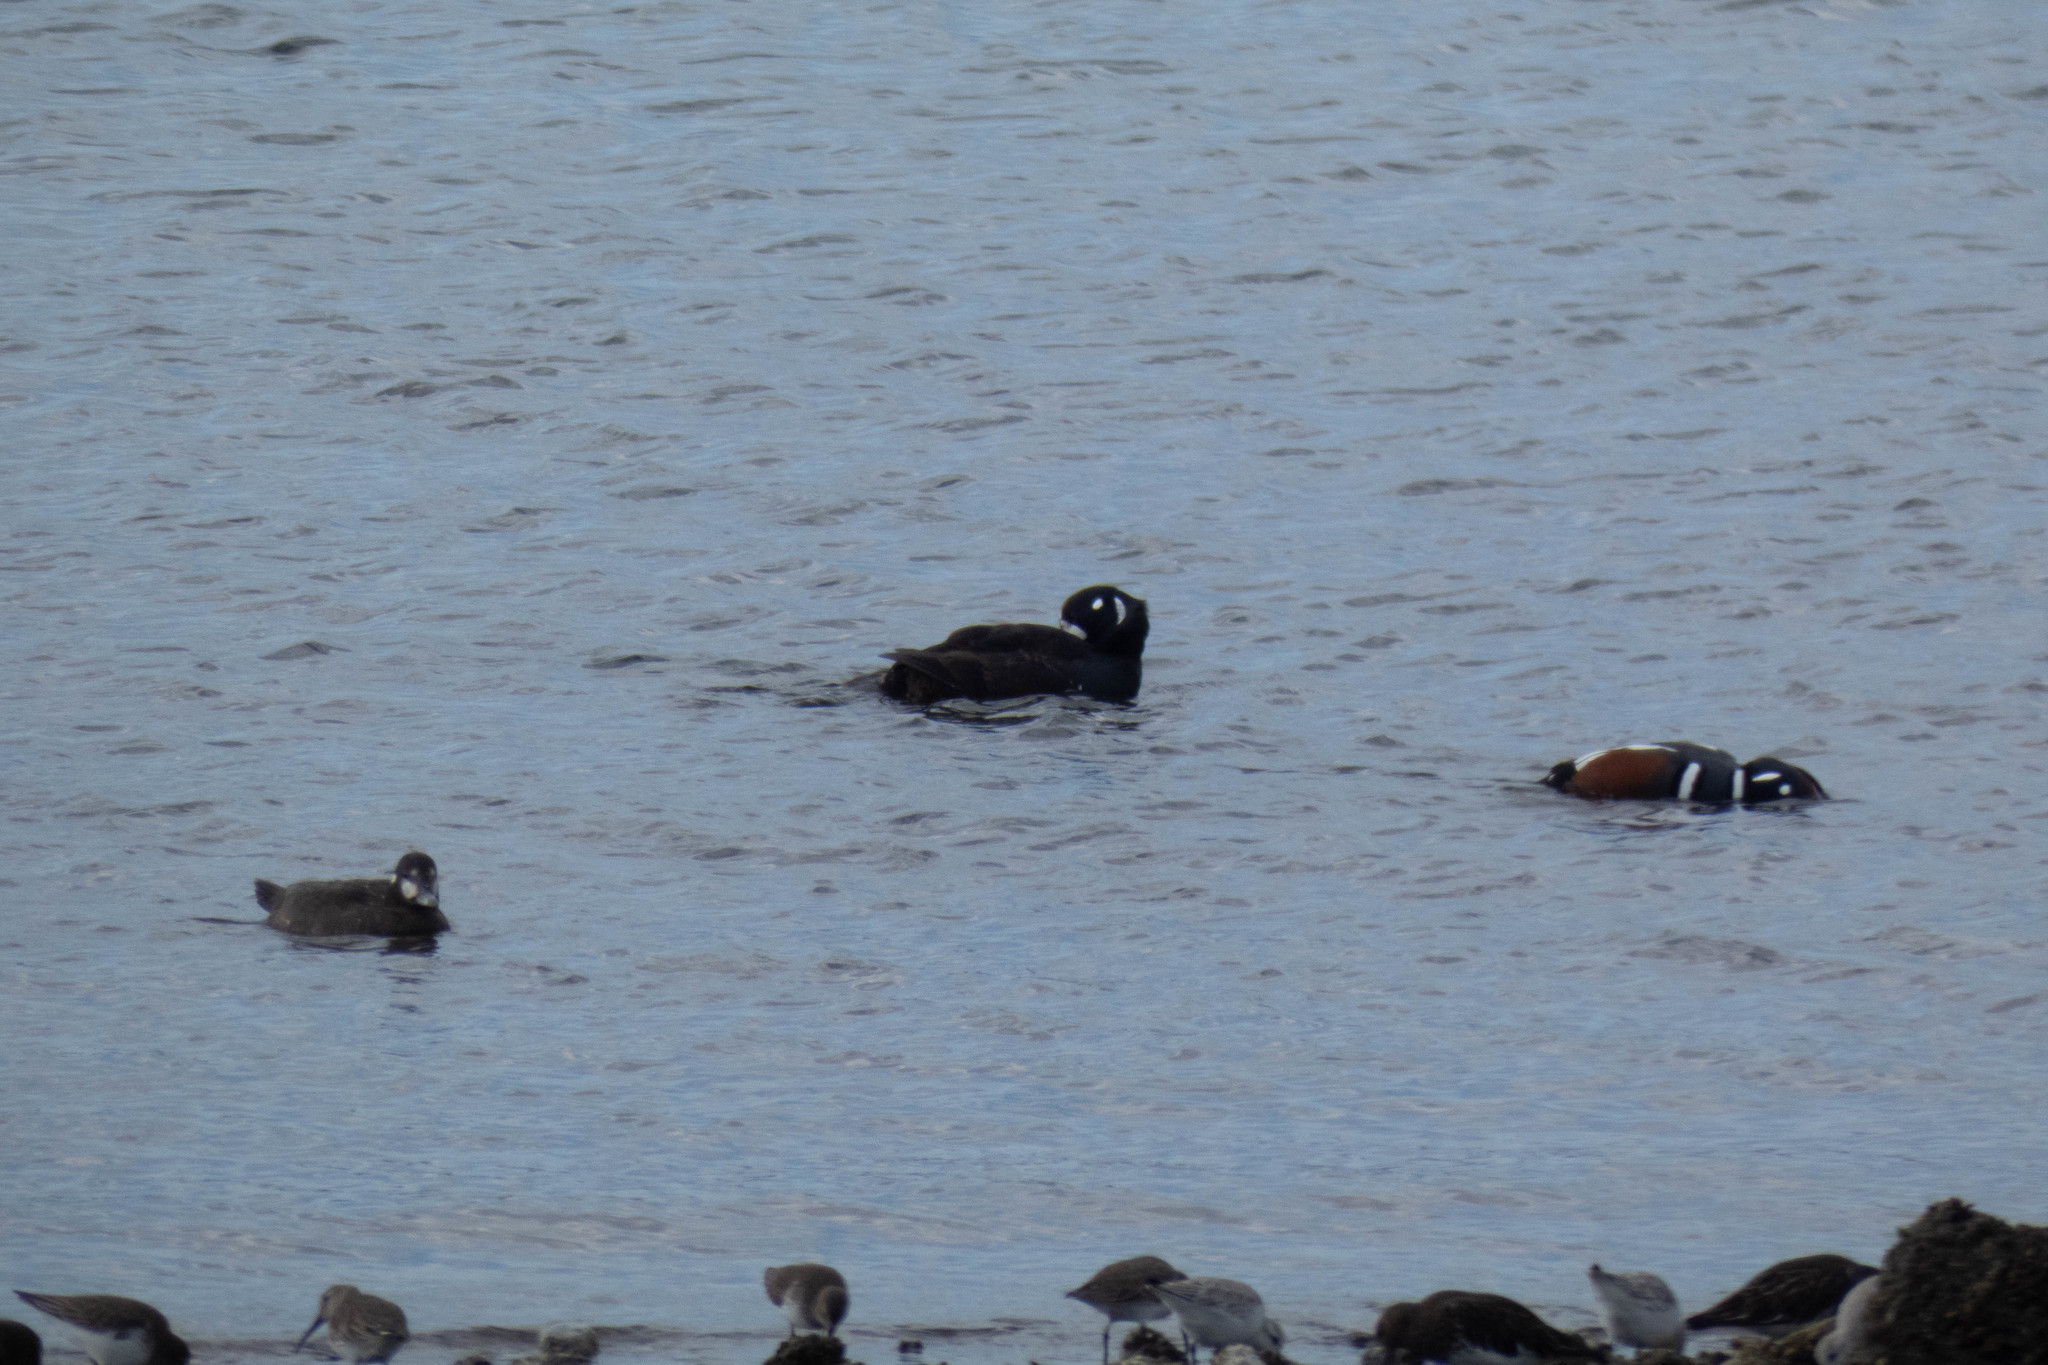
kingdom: Animalia
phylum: Chordata
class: Aves
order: Anseriformes
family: Anatidae
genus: Histrionicus
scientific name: Histrionicus histrionicus
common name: Harlequin duck
